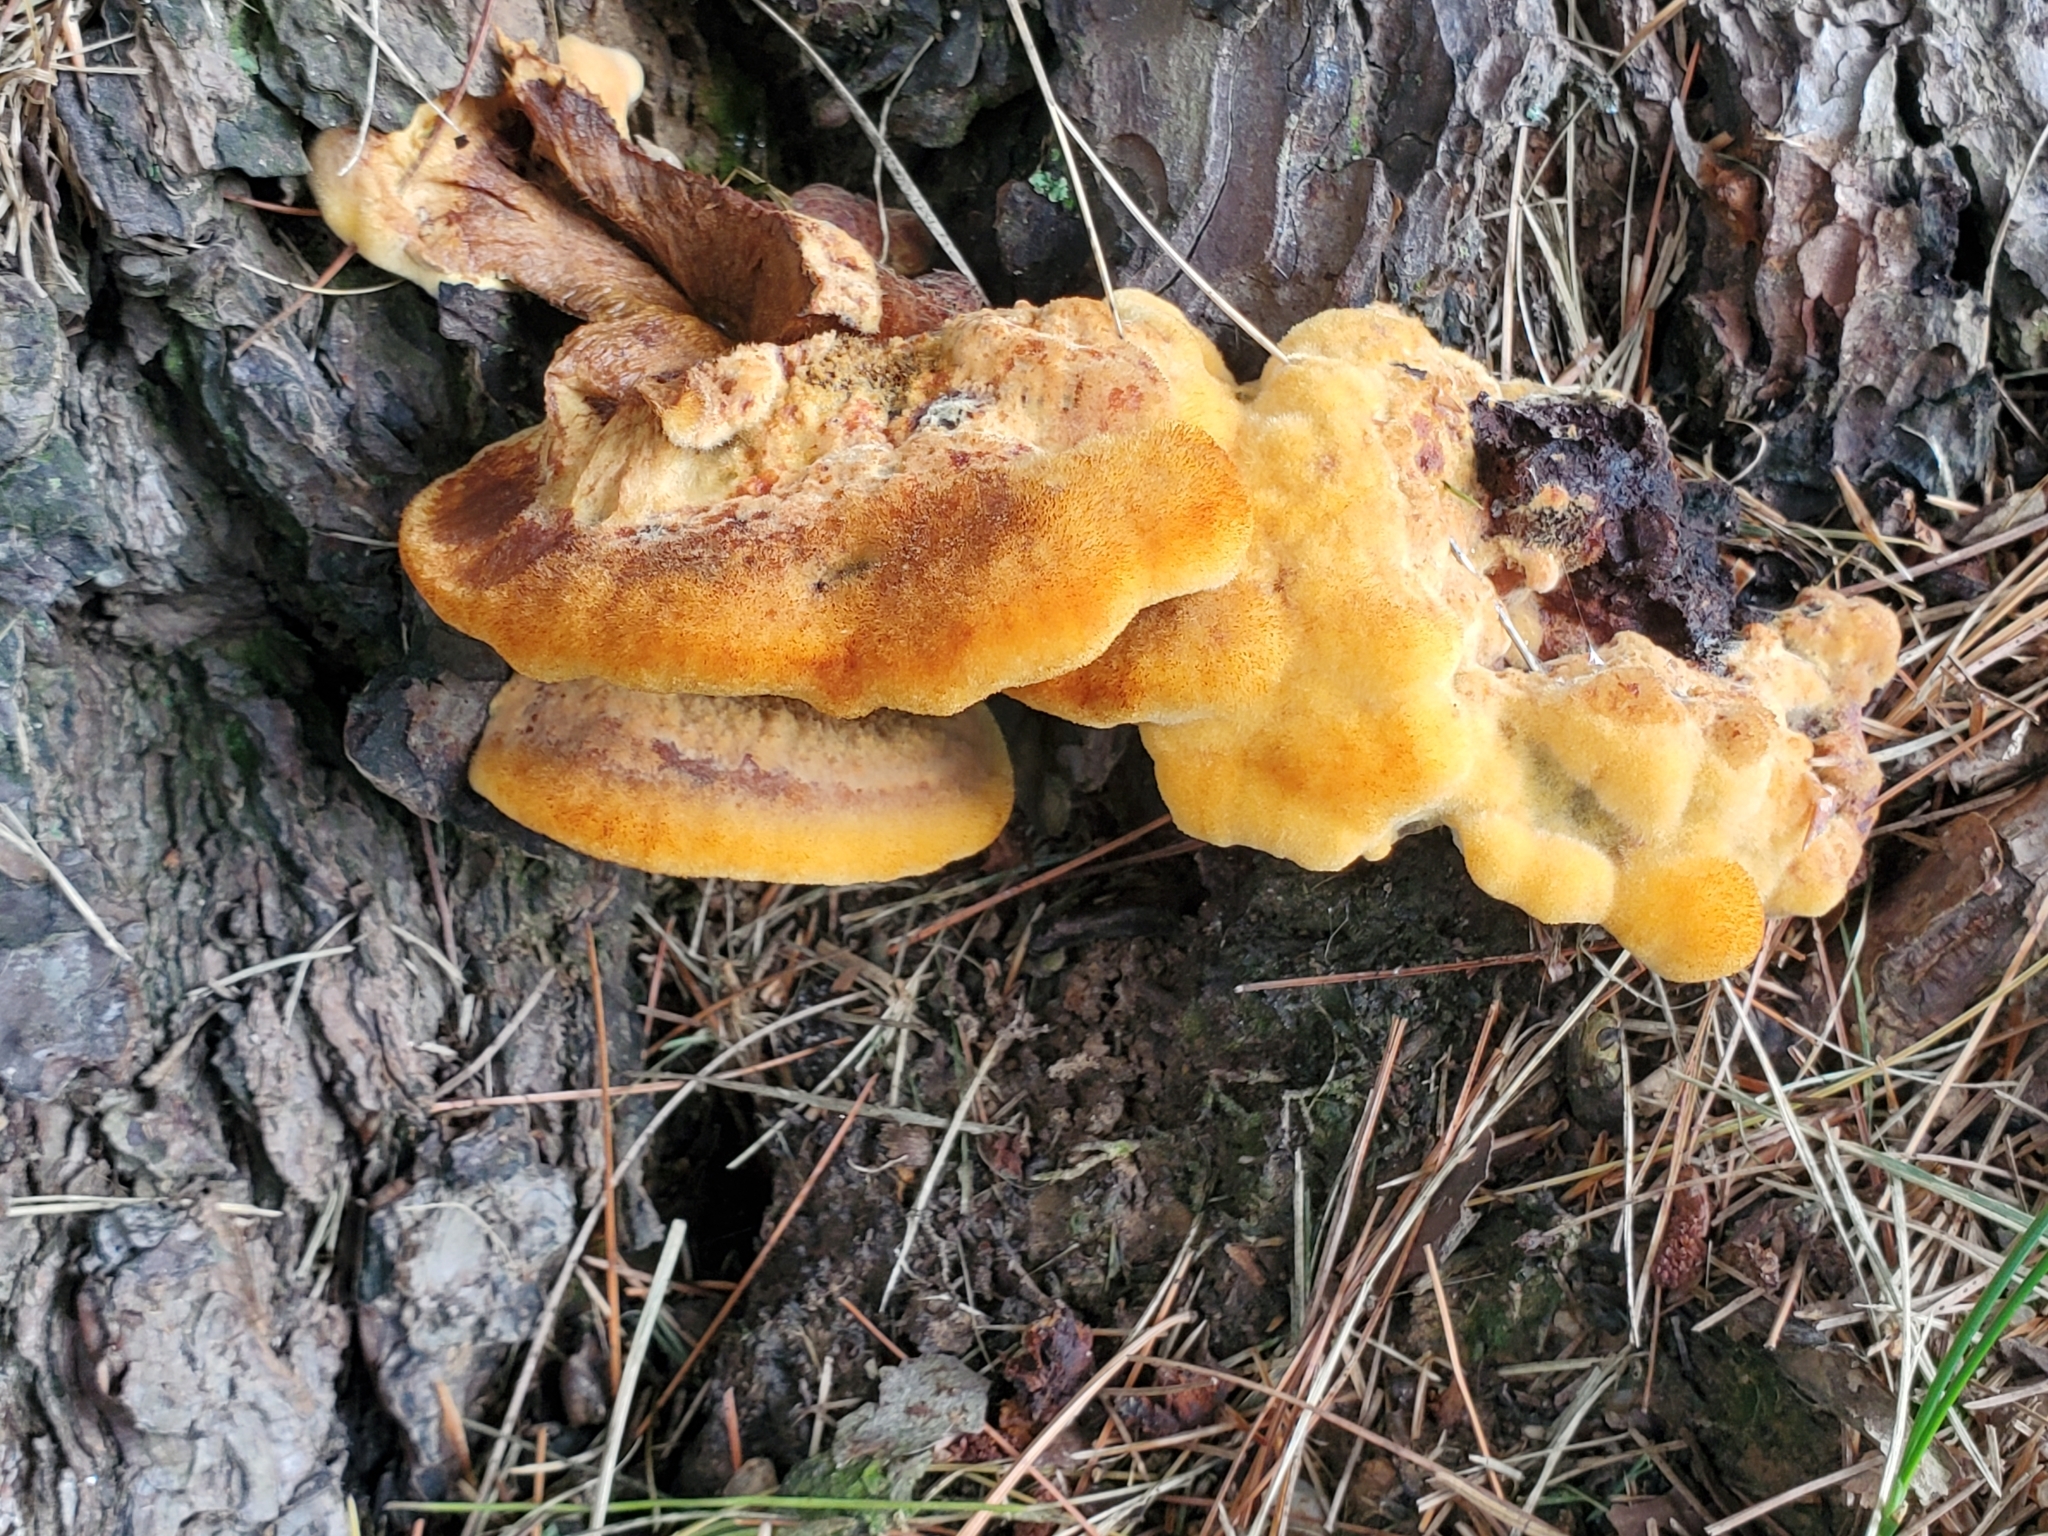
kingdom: Fungi
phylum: Basidiomycota
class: Agaricomycetes
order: Polyporales
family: Laetiporaceae
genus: Phaeolus
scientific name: Phaeolus schweinitzii
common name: Dyer's mazegill
